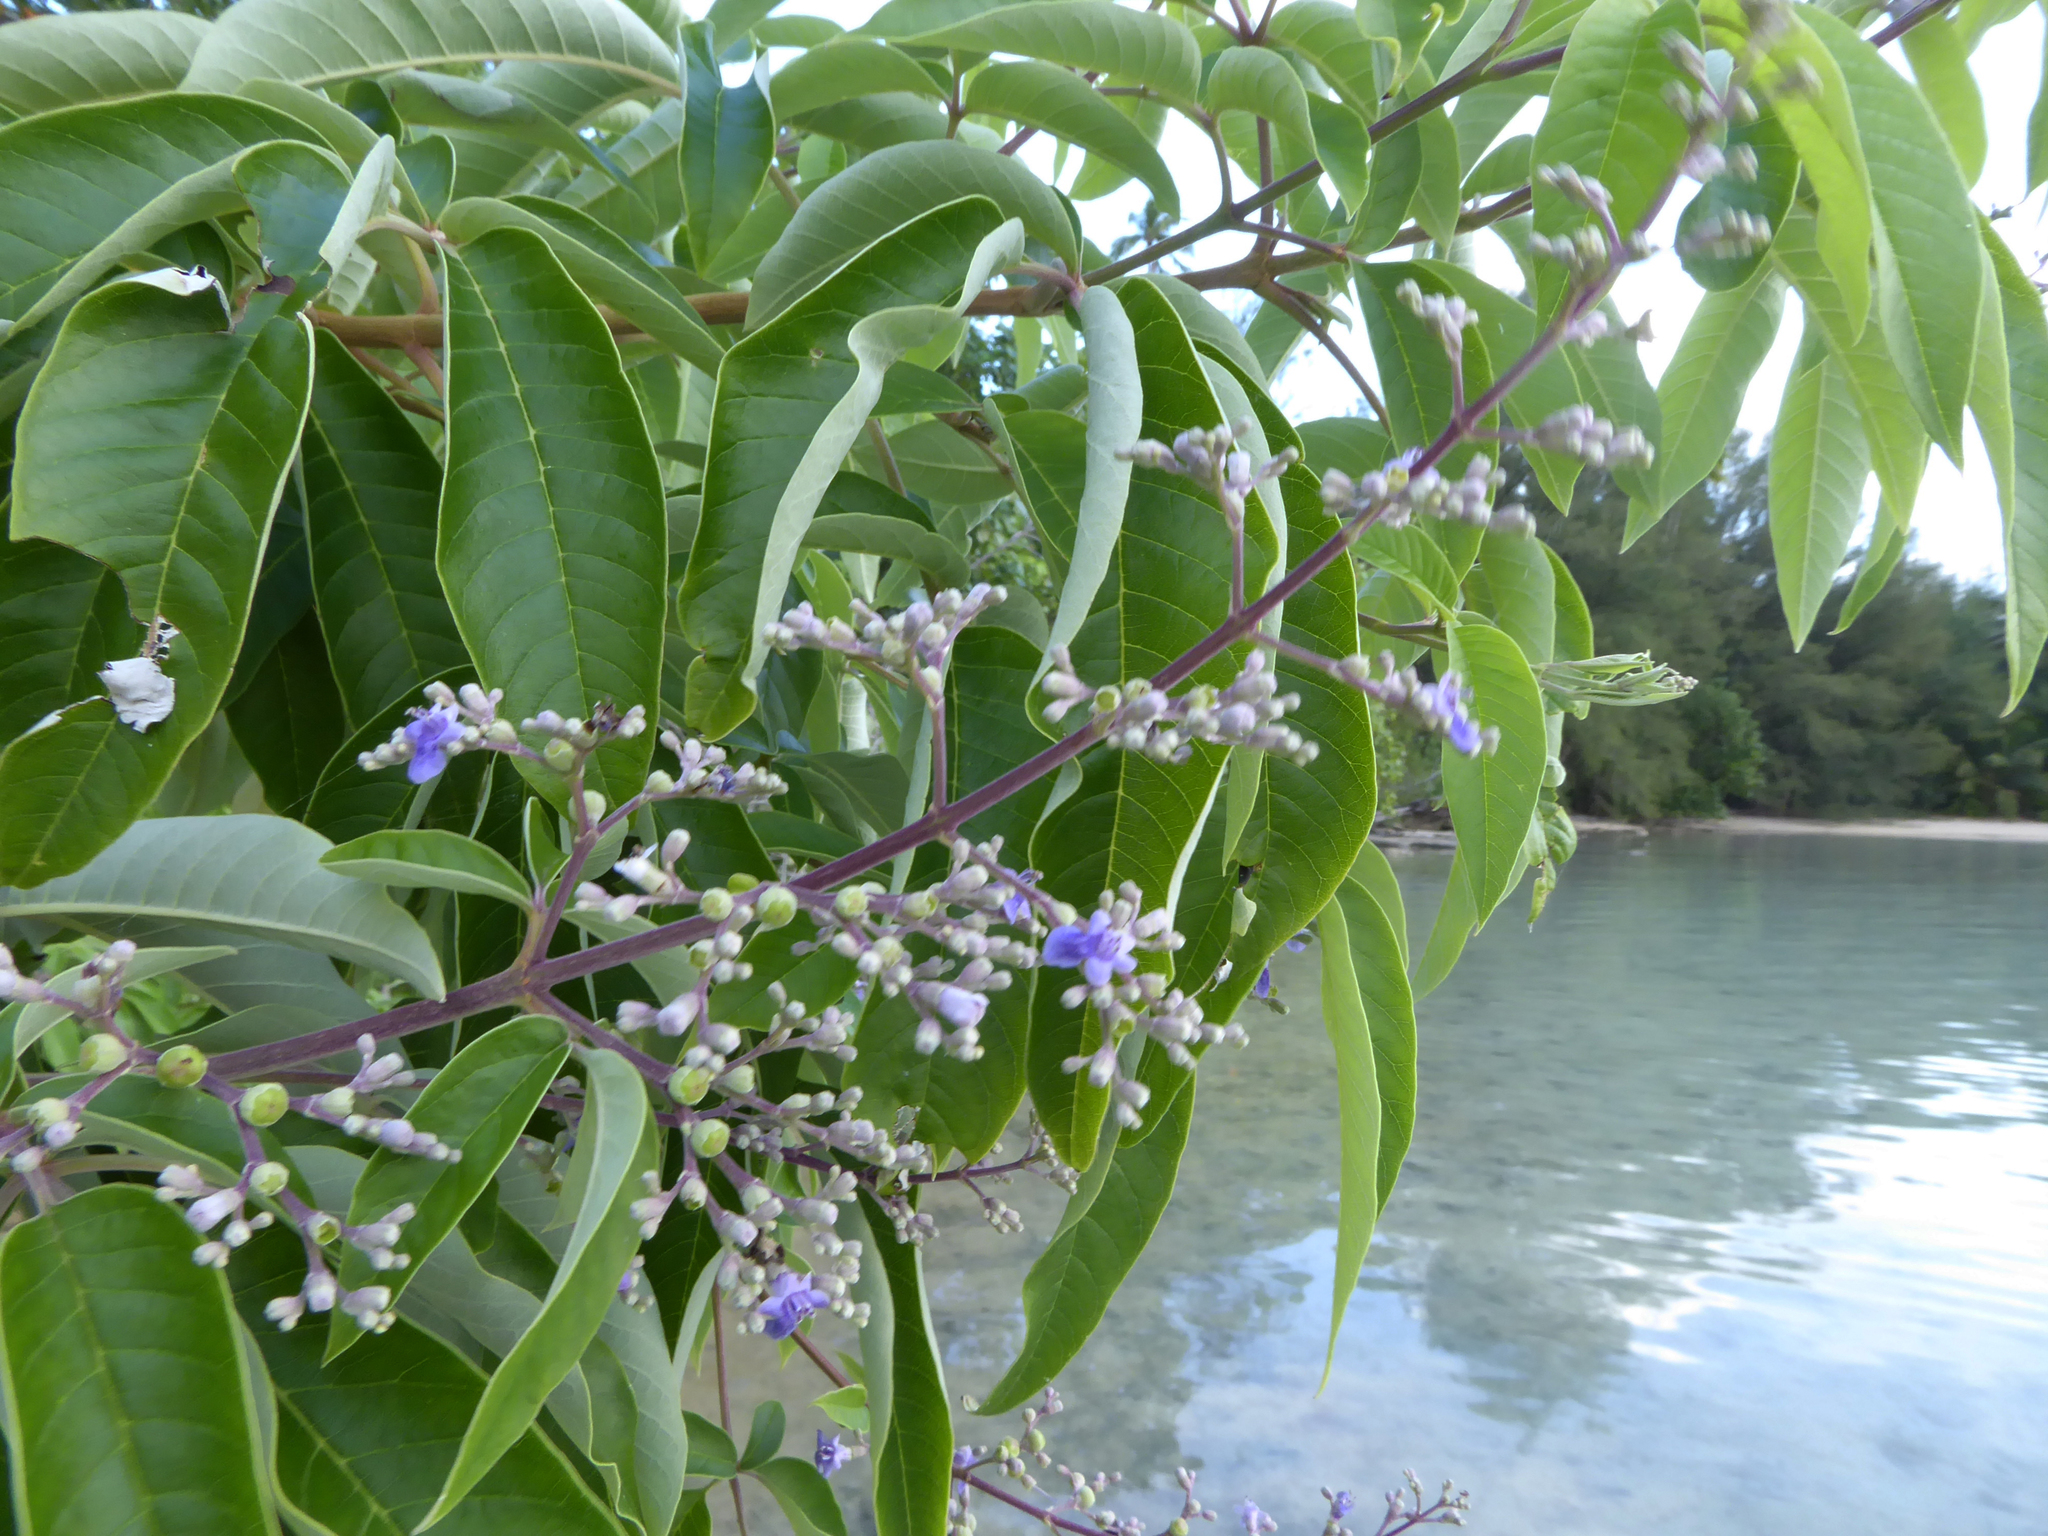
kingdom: Plantae
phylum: Tracheophyta
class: Magnoliopsida
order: Lamiales
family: Lamiaceae
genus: Vitex
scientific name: Vitex trifolia
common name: Simpleleaf chastetree
